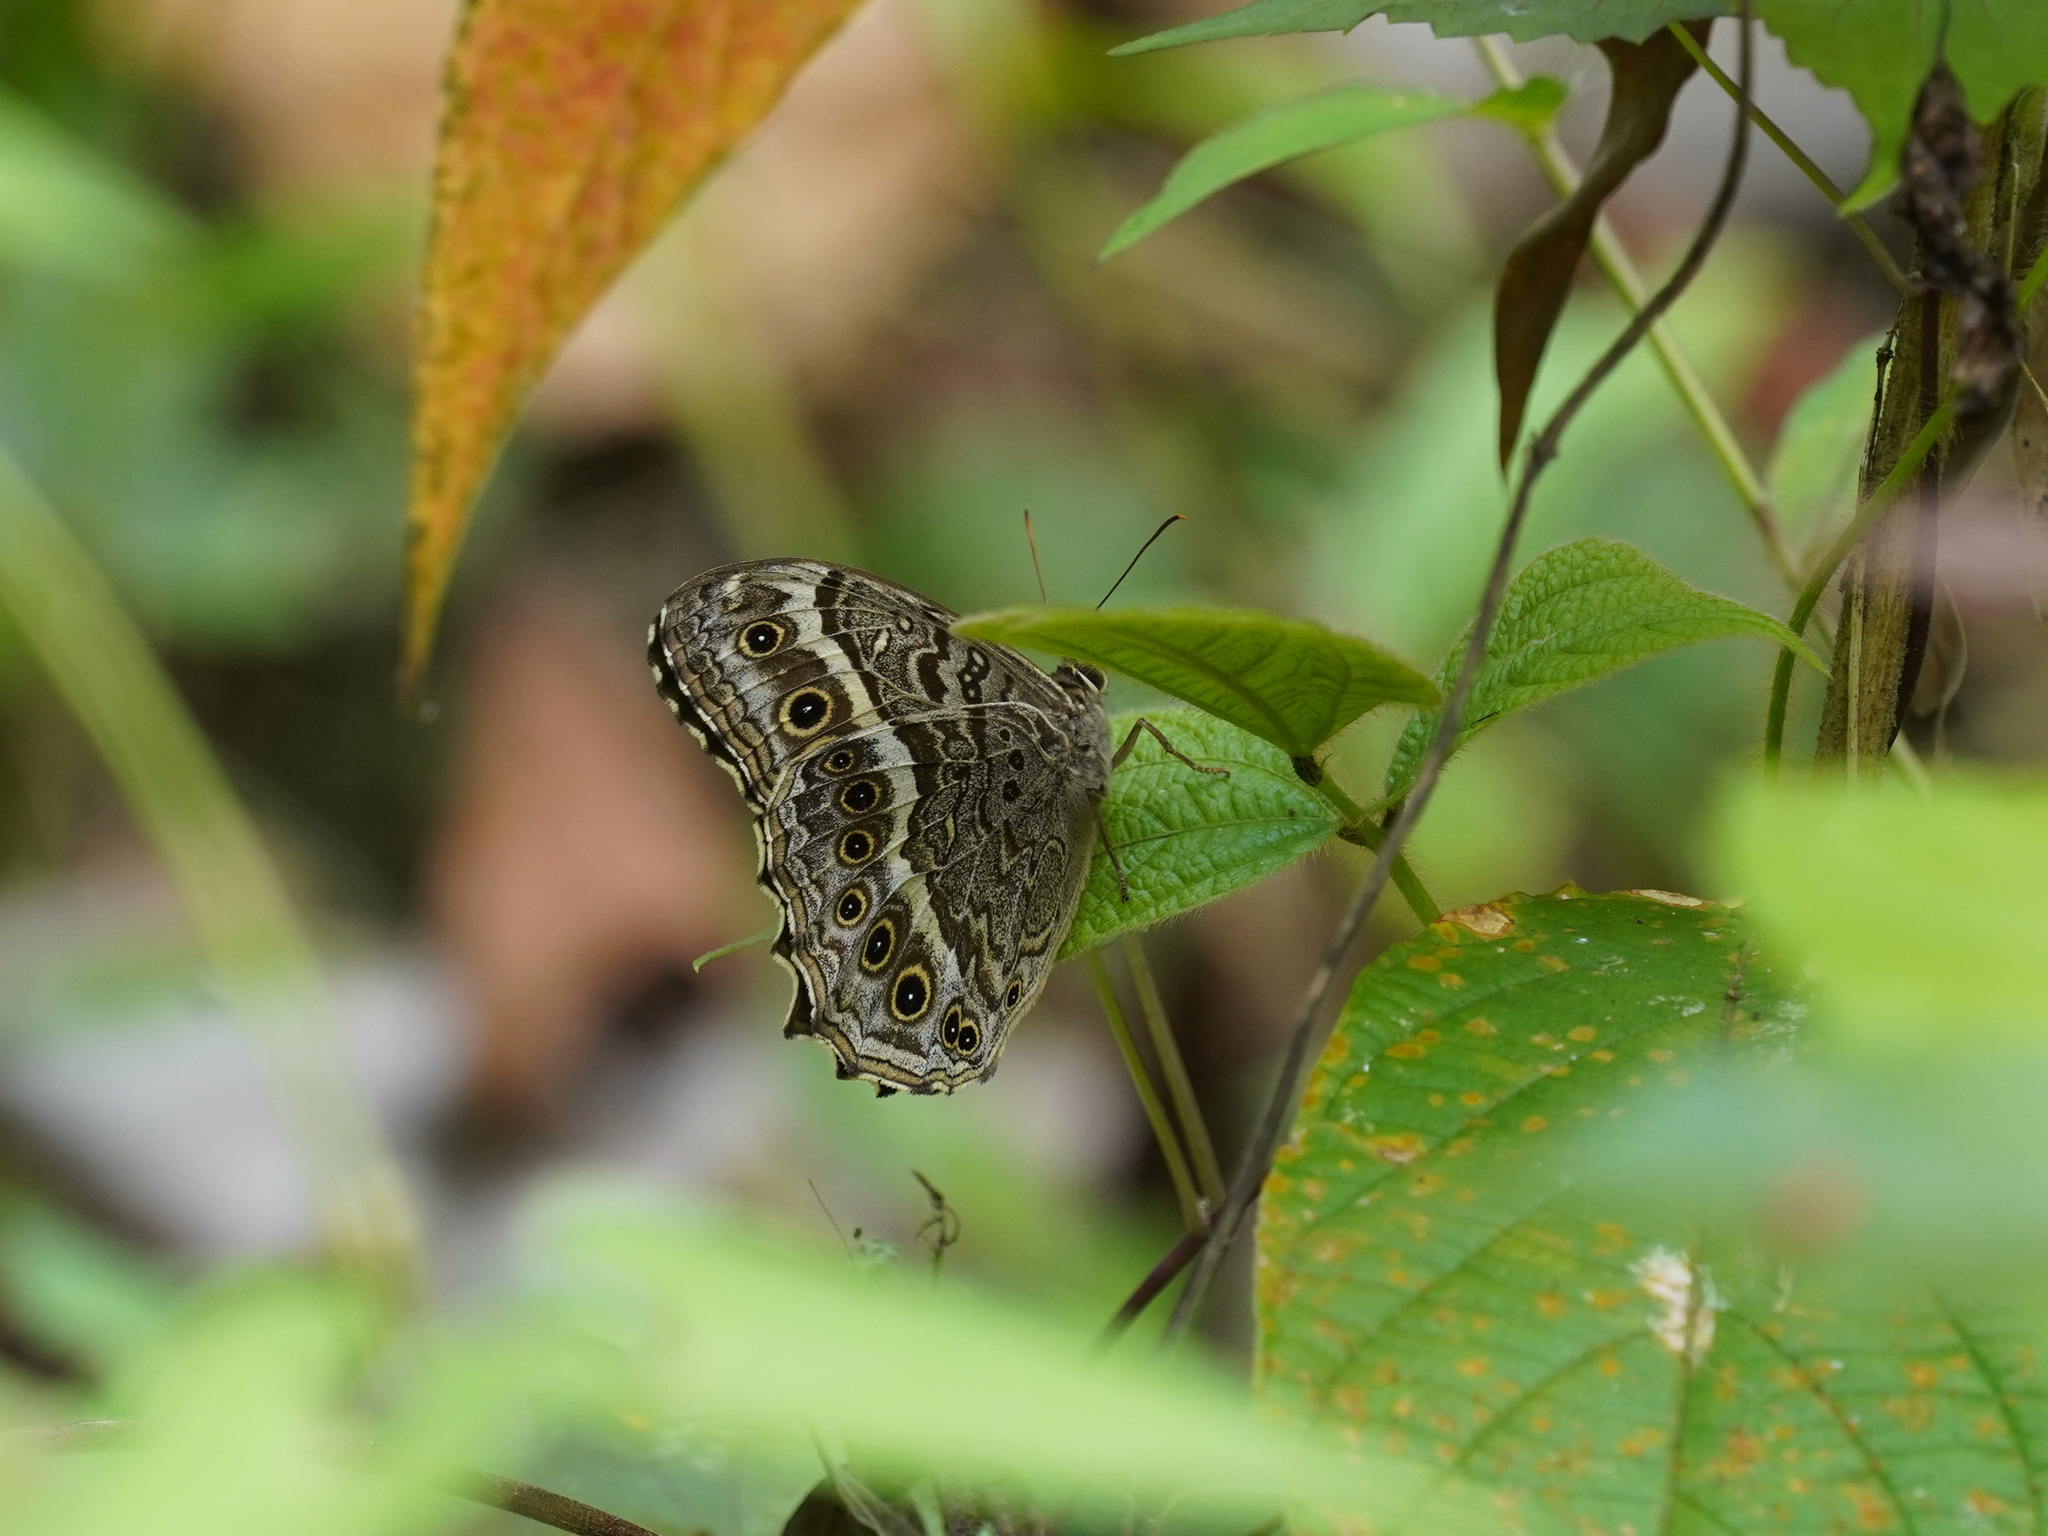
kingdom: Animalia
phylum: Arthropoda
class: Insecta
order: Lepidoptera
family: Nymphalidae
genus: Neope
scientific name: Neope muirheadii
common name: Black-spotted labyrinth
